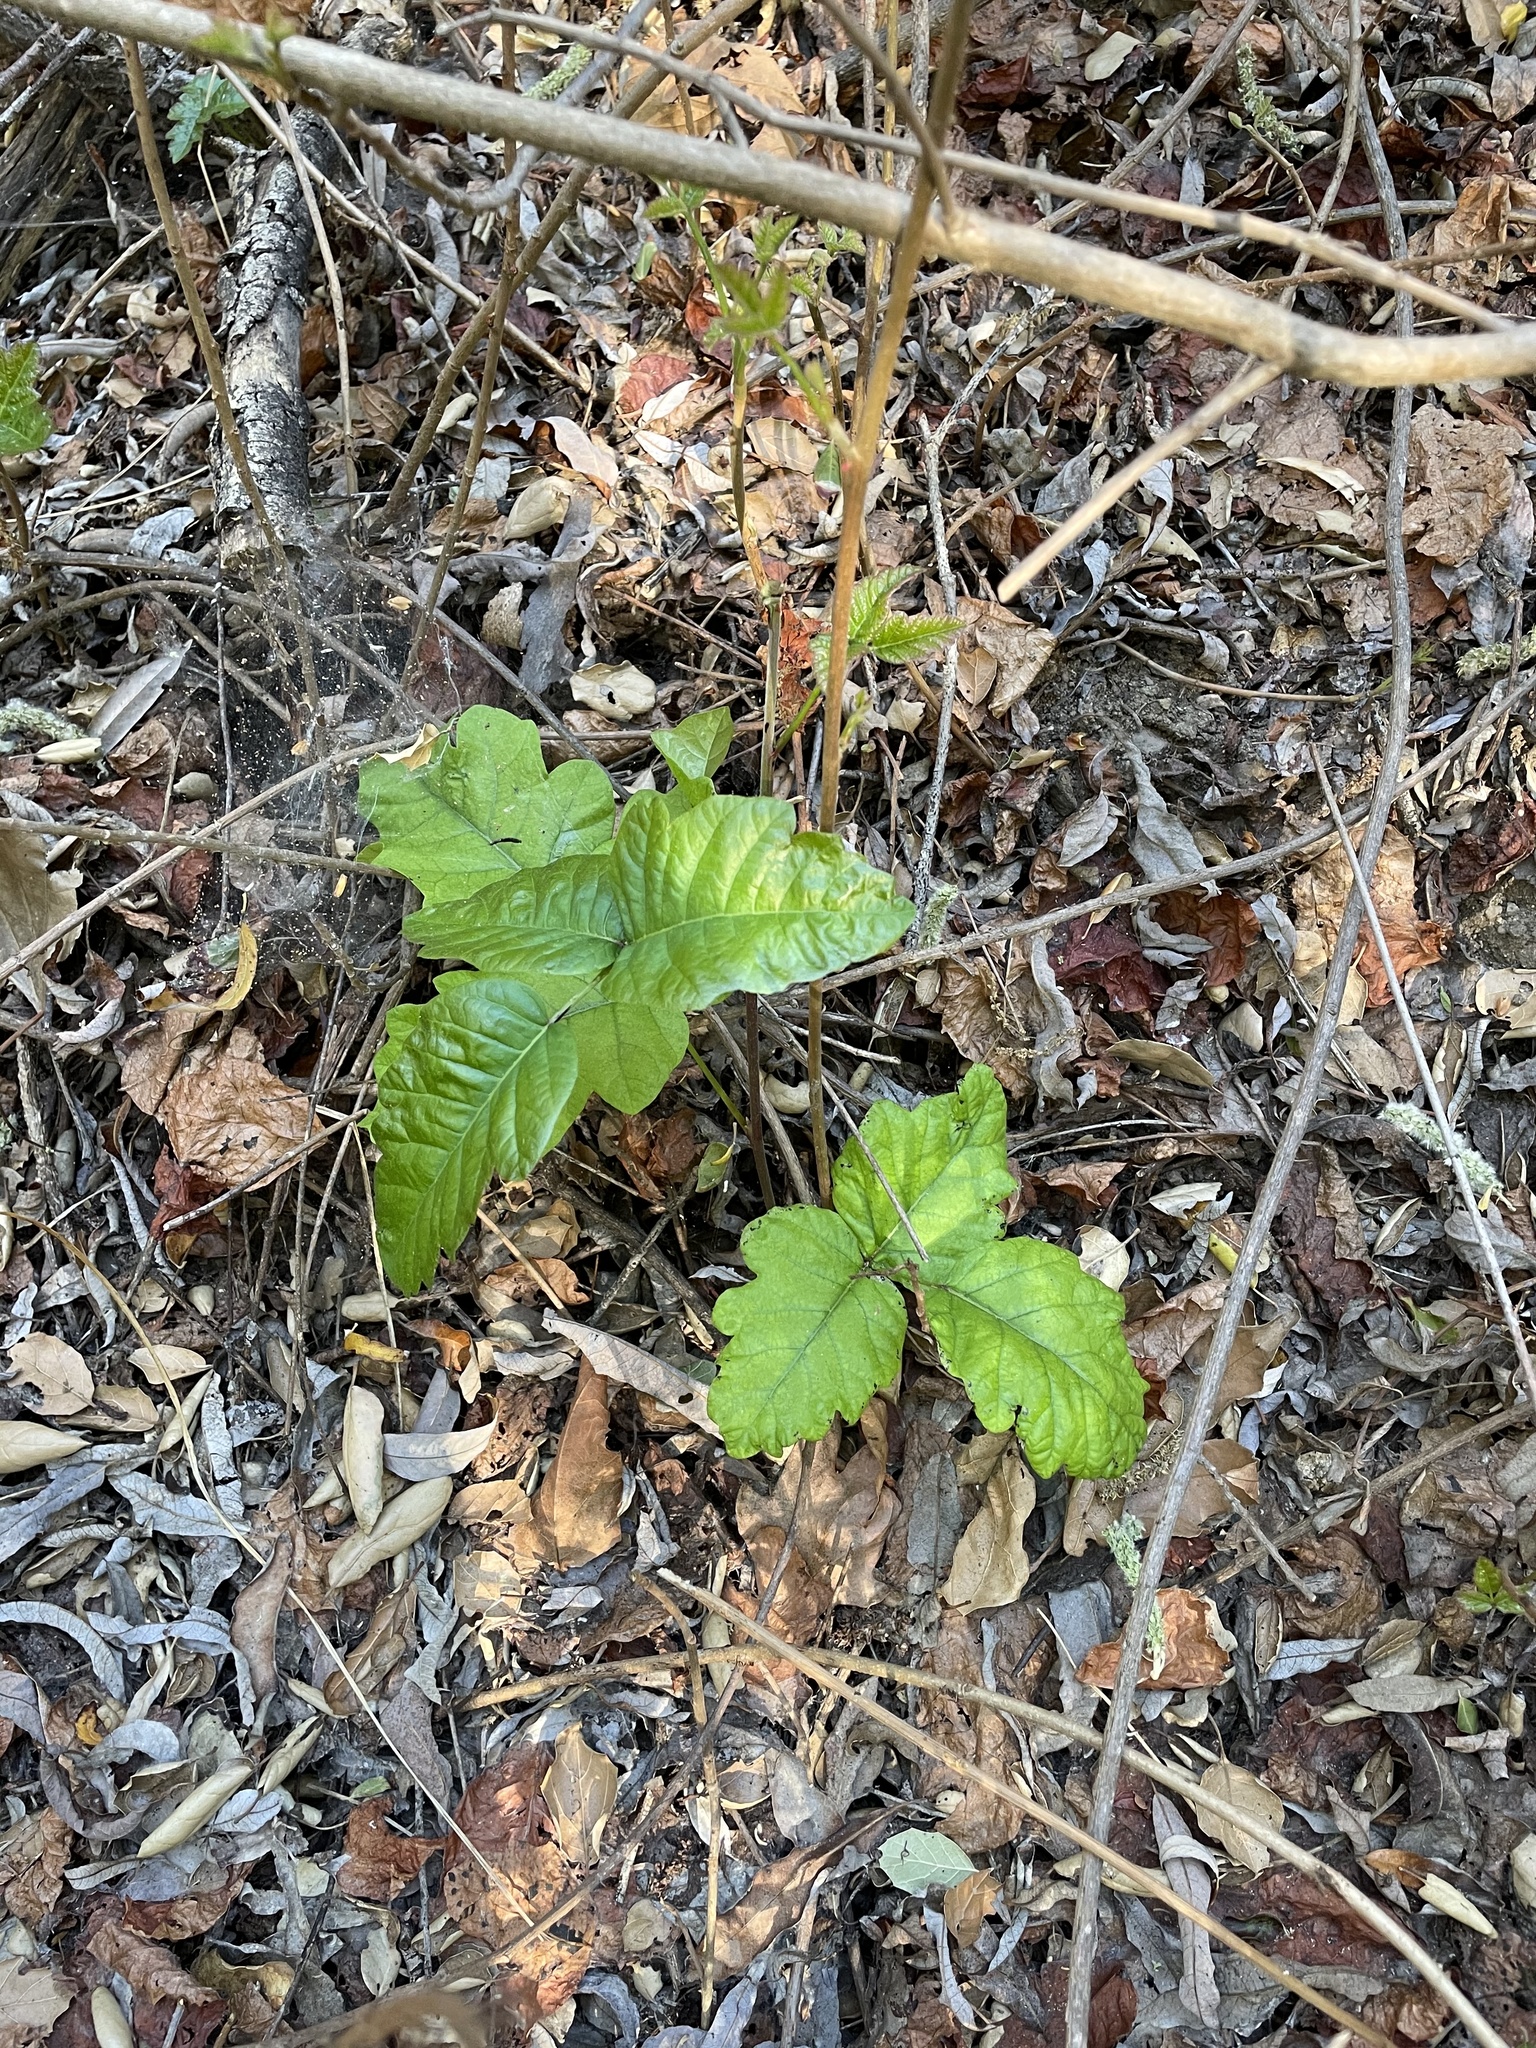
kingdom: Plantae
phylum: Tracheophyta
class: Magnoliopsida
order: Sapindales
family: Anacardiaceae
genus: Toxicodendron
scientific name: Toxicodendron diversilobum
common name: Pacific poison-oak
